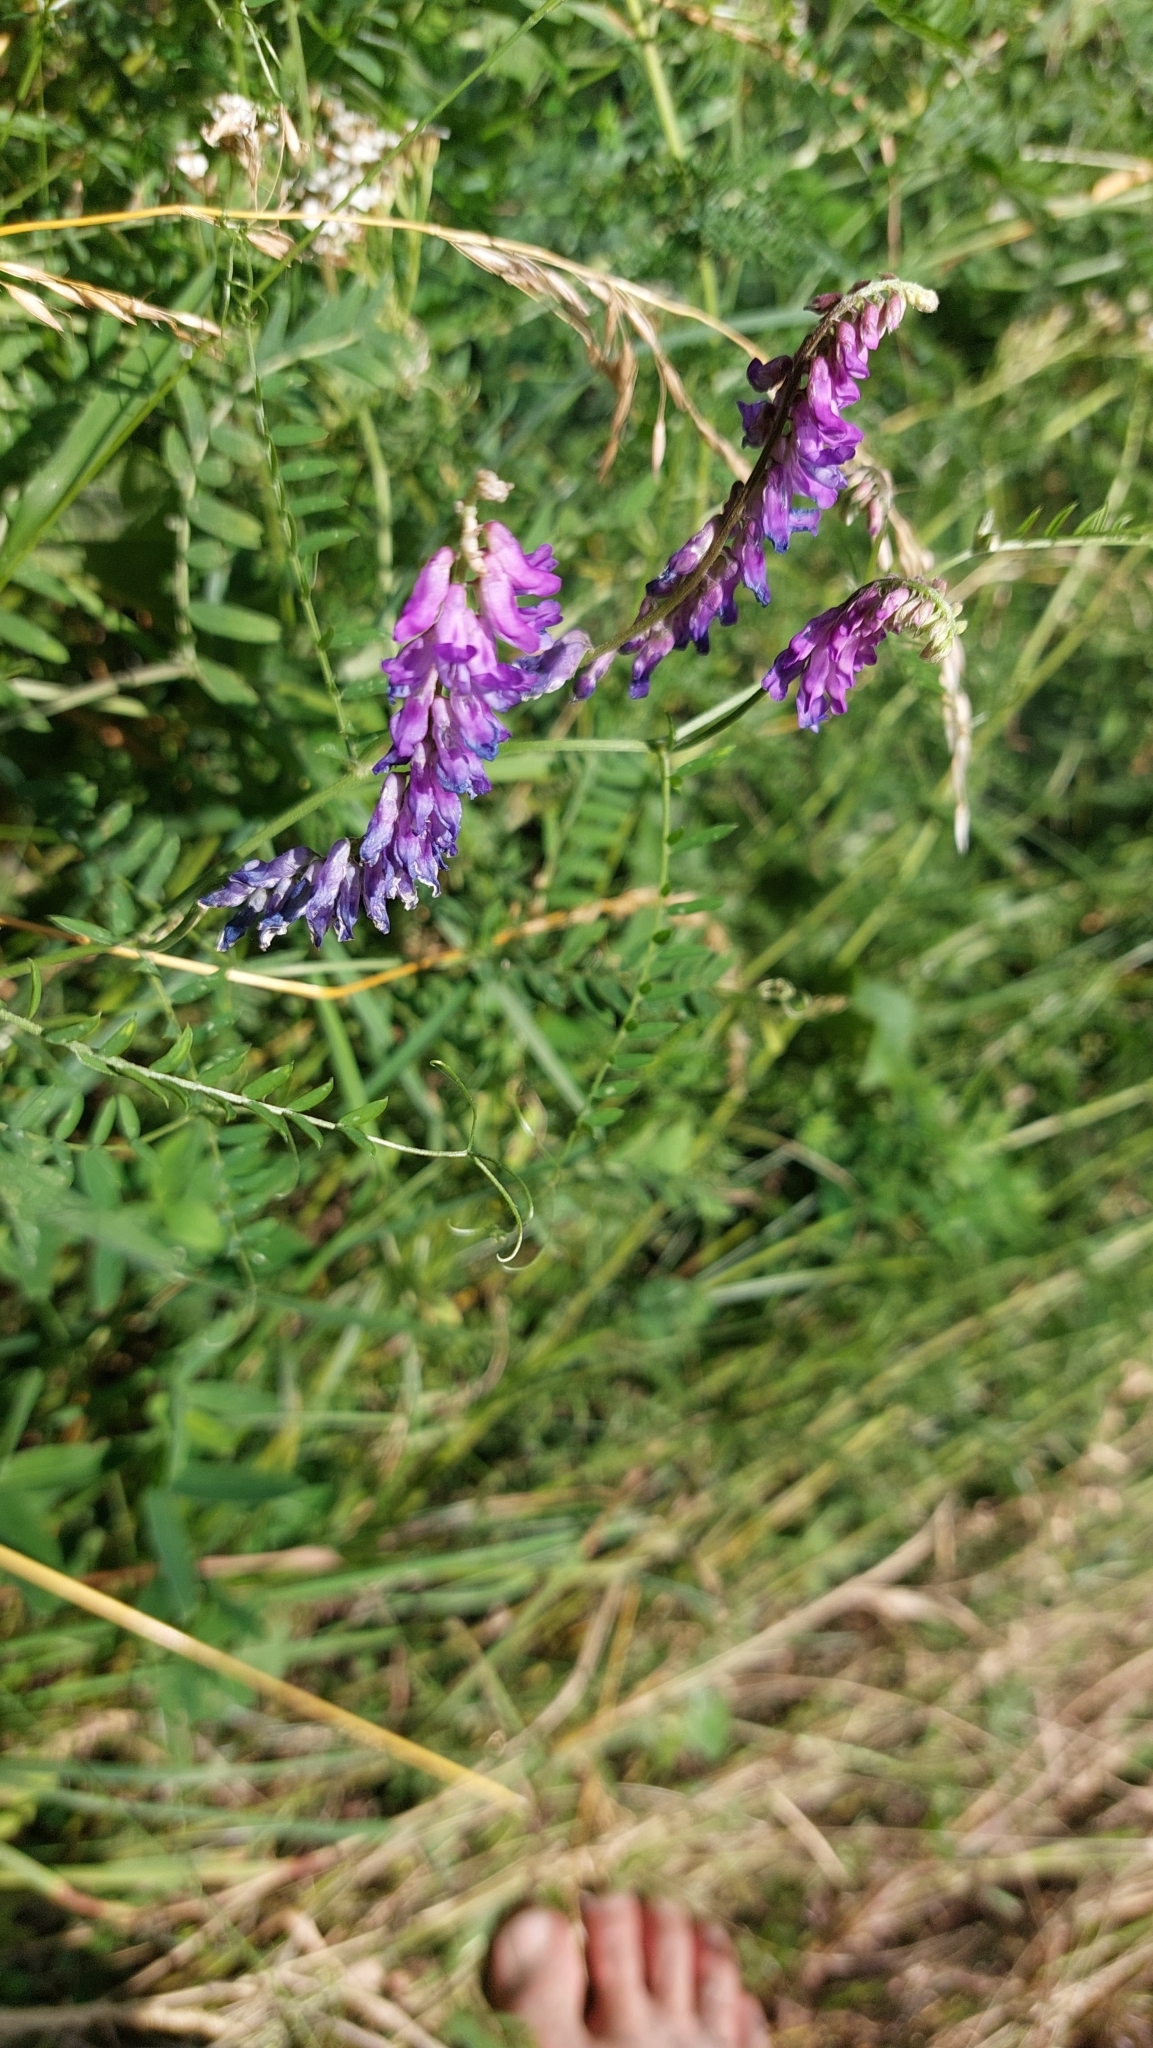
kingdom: Plantae
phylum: Tracheophyta
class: Magnoliopsida
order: Fabales
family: Fabaceae
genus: Vicia
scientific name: Vicia cracca
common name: Bird vetch
